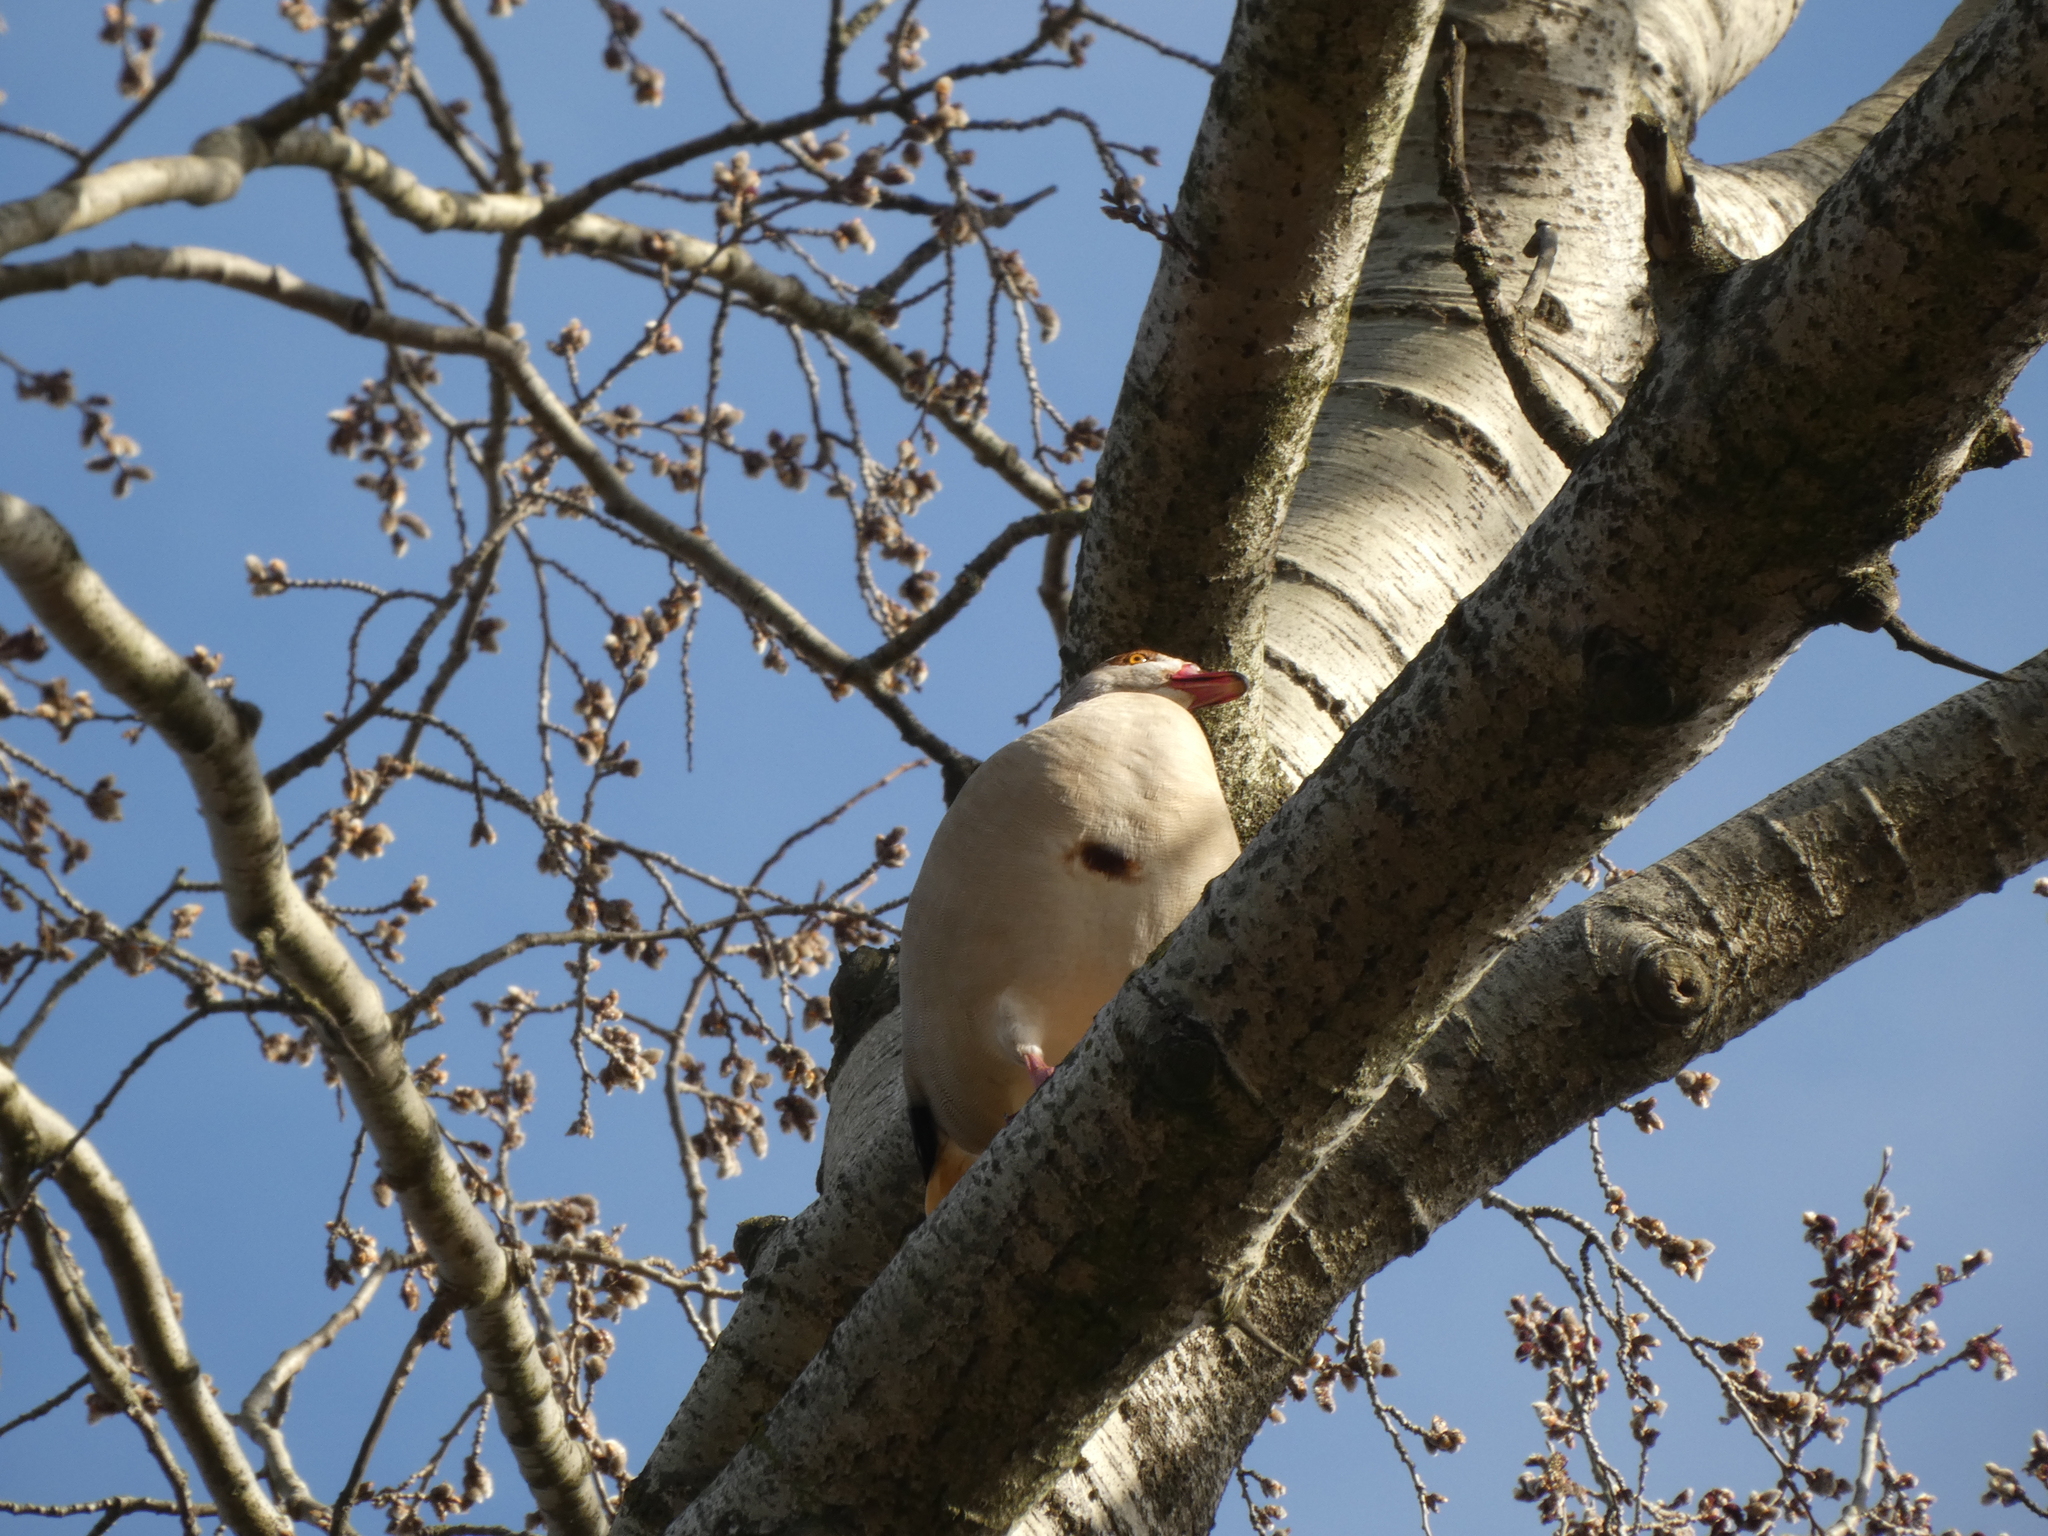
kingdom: Animalia
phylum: Chordata
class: Aves
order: Anseriformes
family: Anatidae
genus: Alopochen
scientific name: Alopochen aegyptiaca
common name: Egyptian goose
